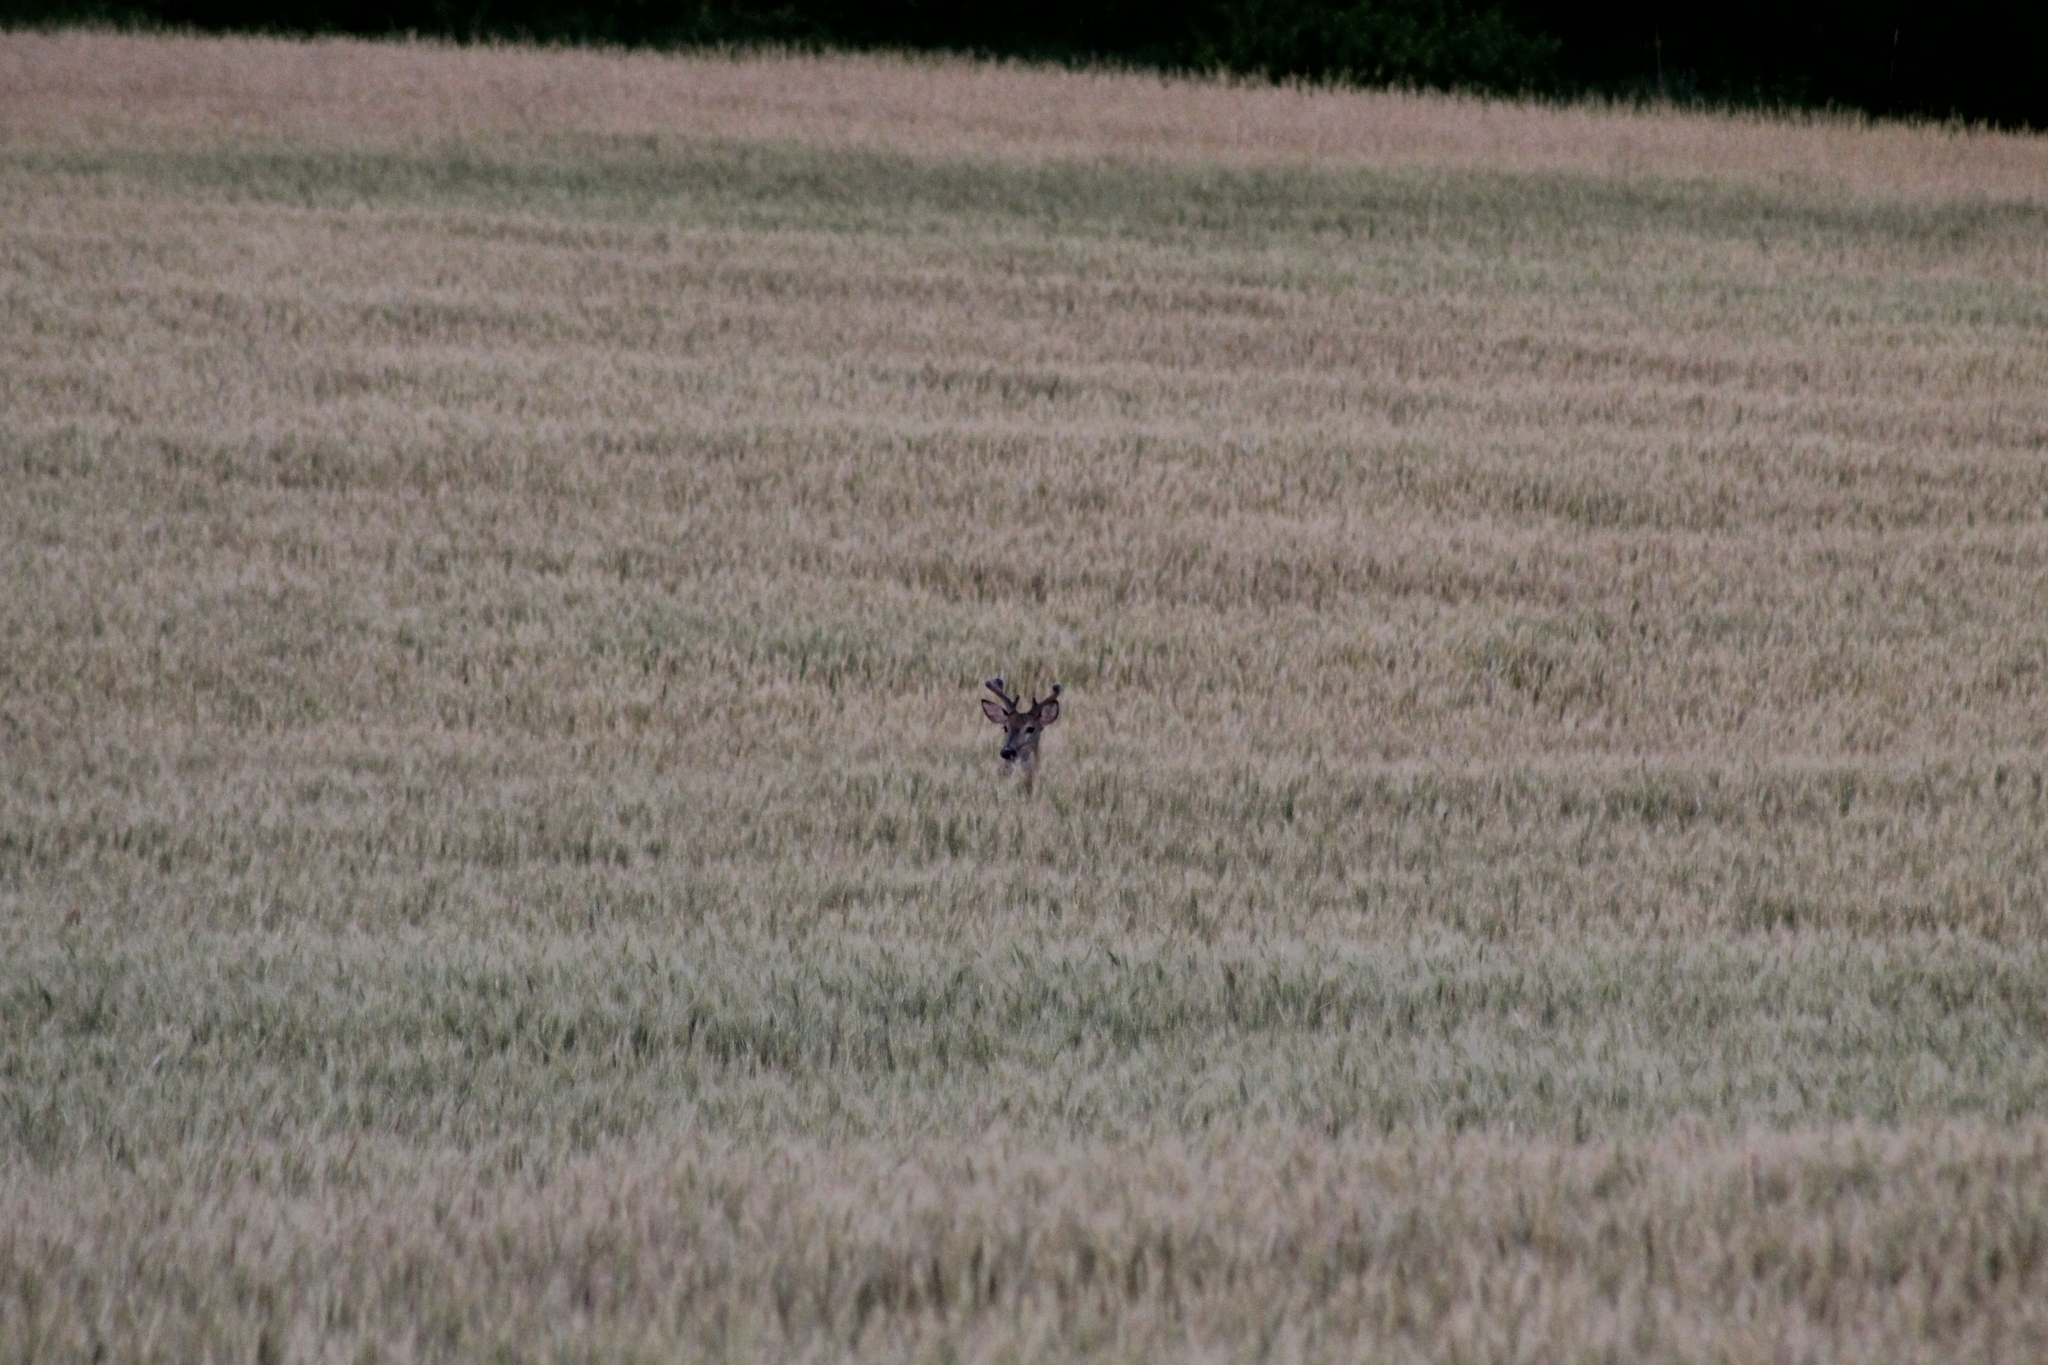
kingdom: Animalia
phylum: Chordata
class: Mammalia
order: Artiodactyla
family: Cervidae
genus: Odocoileus
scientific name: Odocoileus virginianus
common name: White-tailed deer
